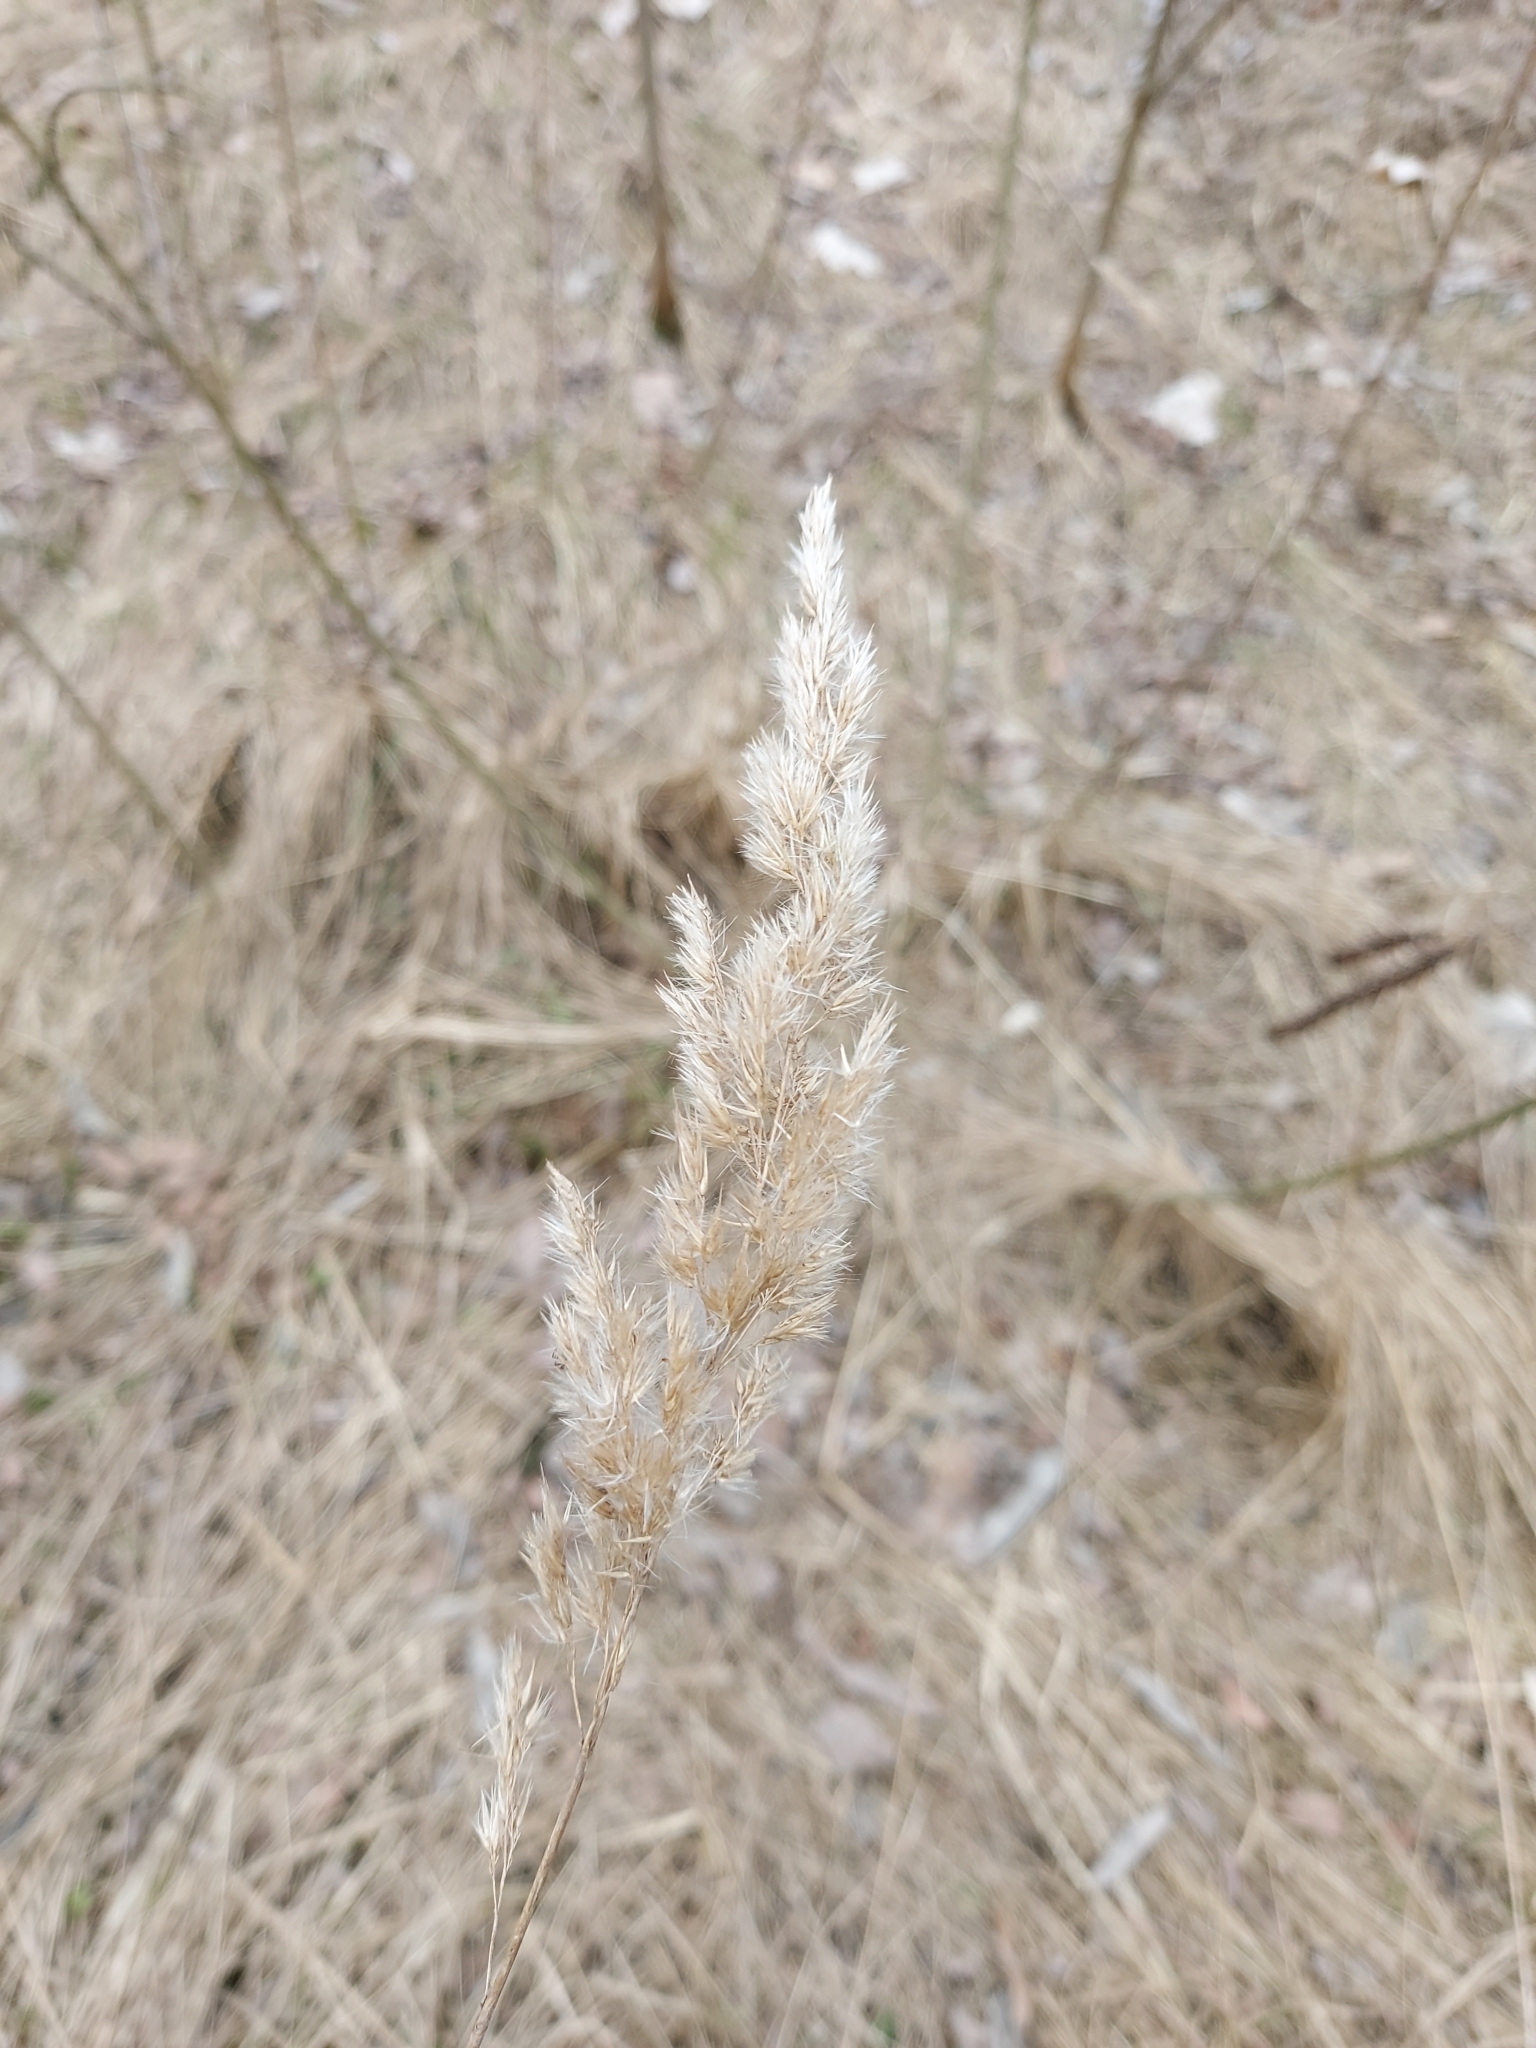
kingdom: Plantae
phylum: Tracheophyta
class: Liliopsida
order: Poales
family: Poaceae
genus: Calamagrostis
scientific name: Calamagrostis epigejos
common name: Wood small-reed
